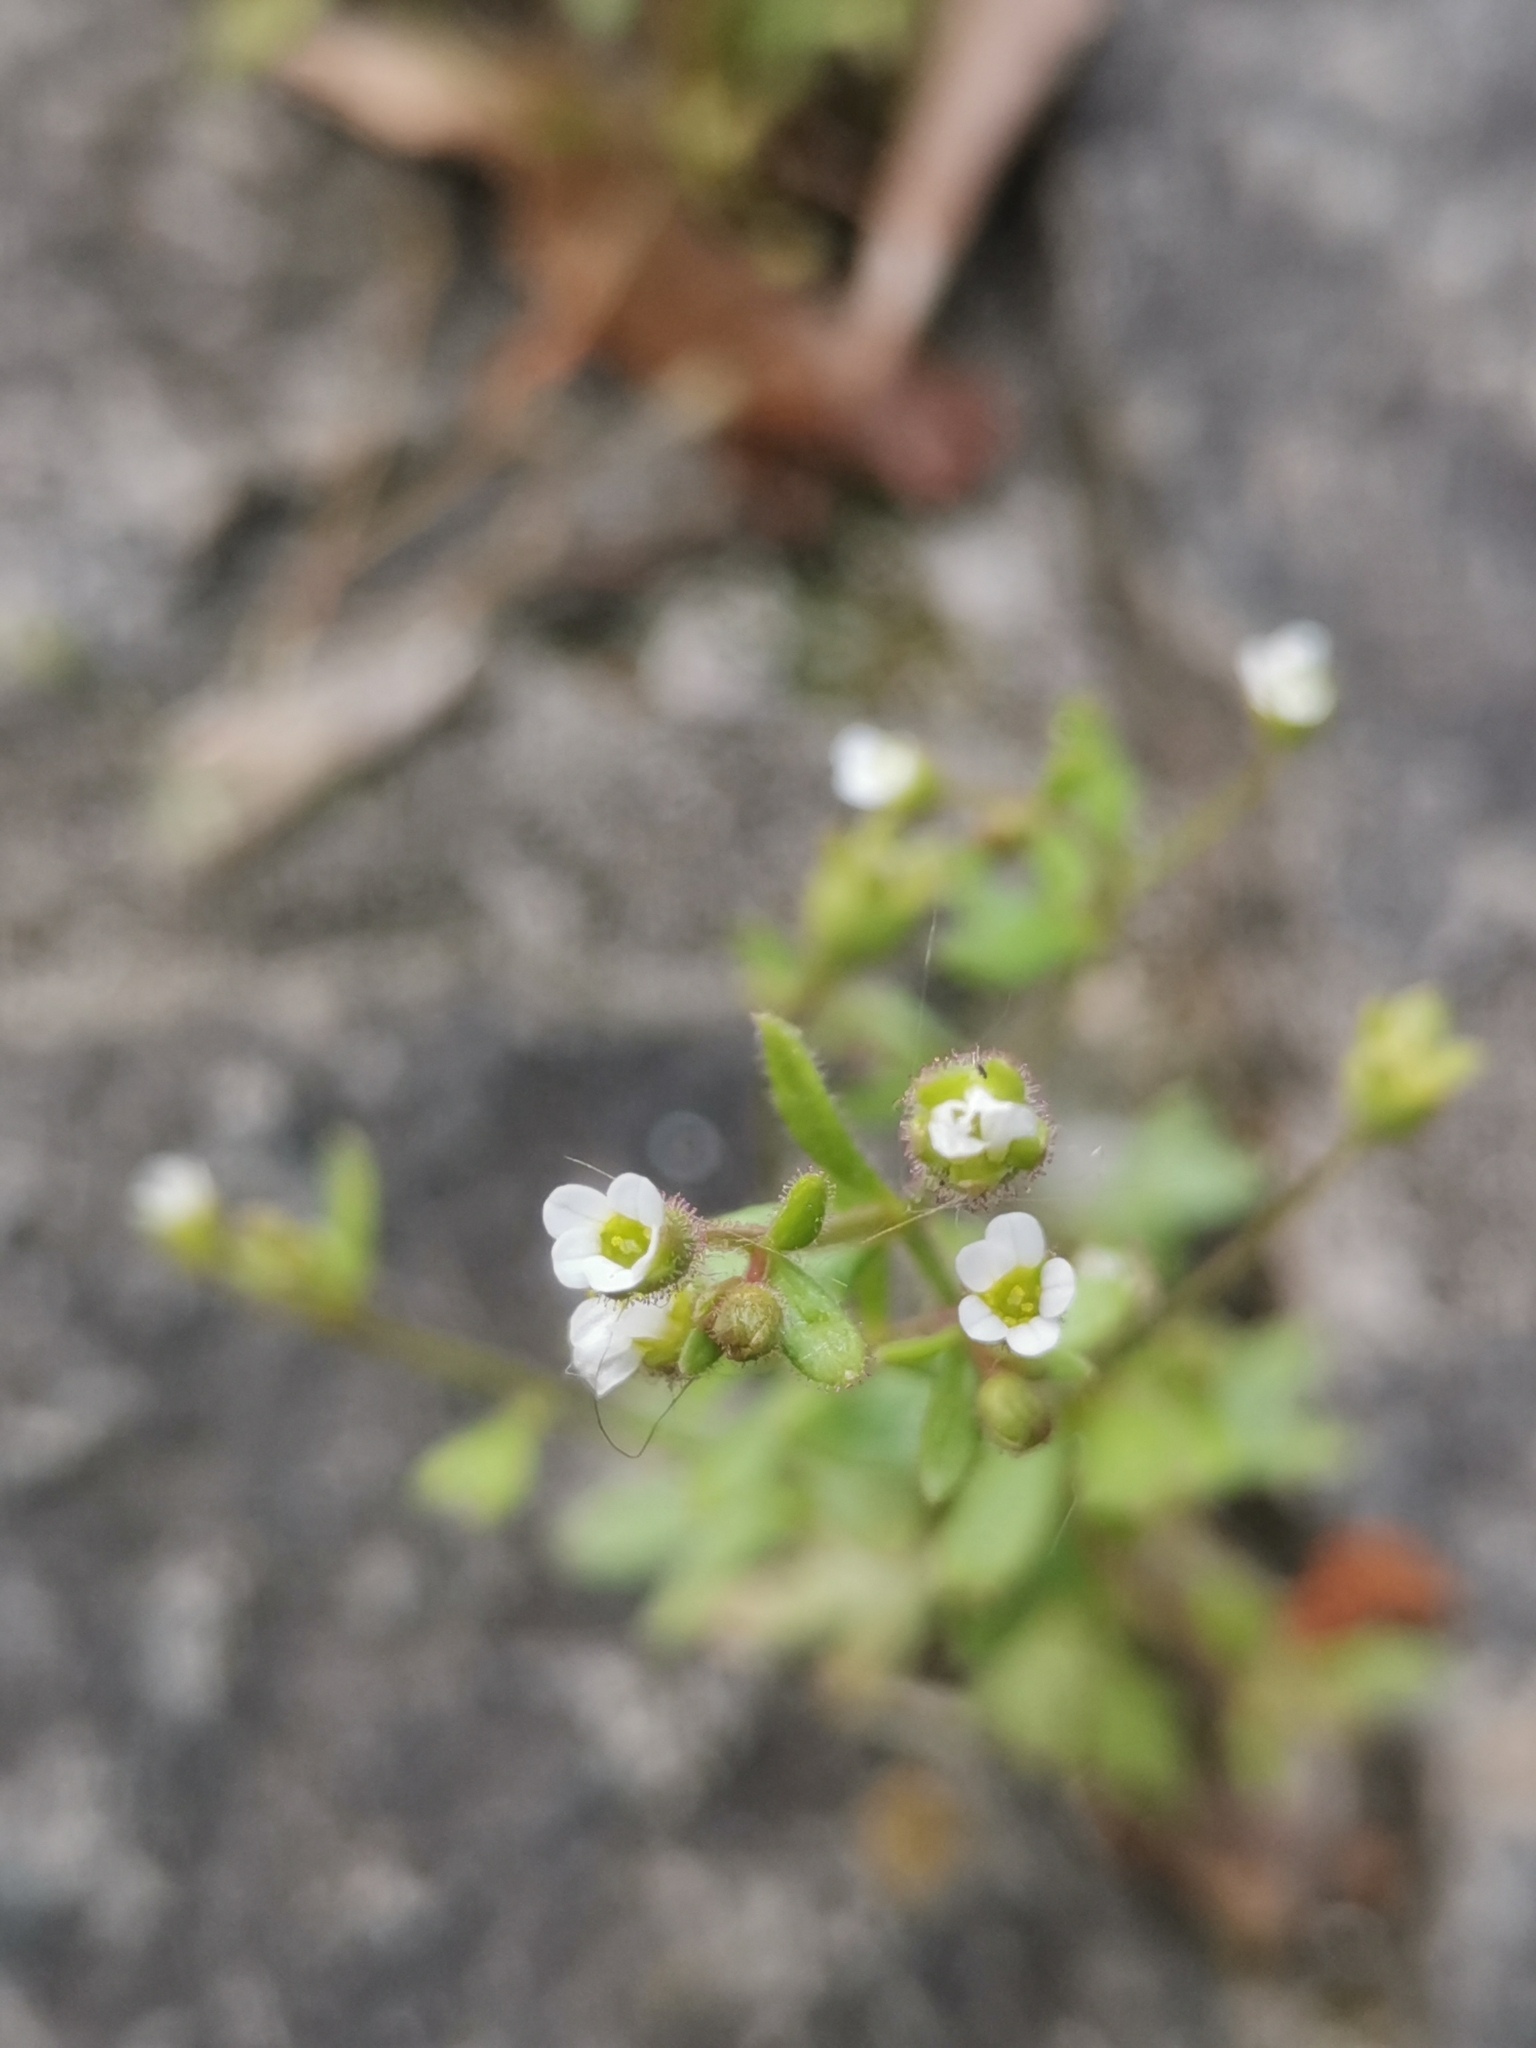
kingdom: Plantae
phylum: Tracheophyta
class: Magnoliopsida
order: Saxifragales
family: Saxifragaceae
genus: Saxifraga
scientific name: Saxifraga tridactylites
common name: Rue-leaved saxifrage
